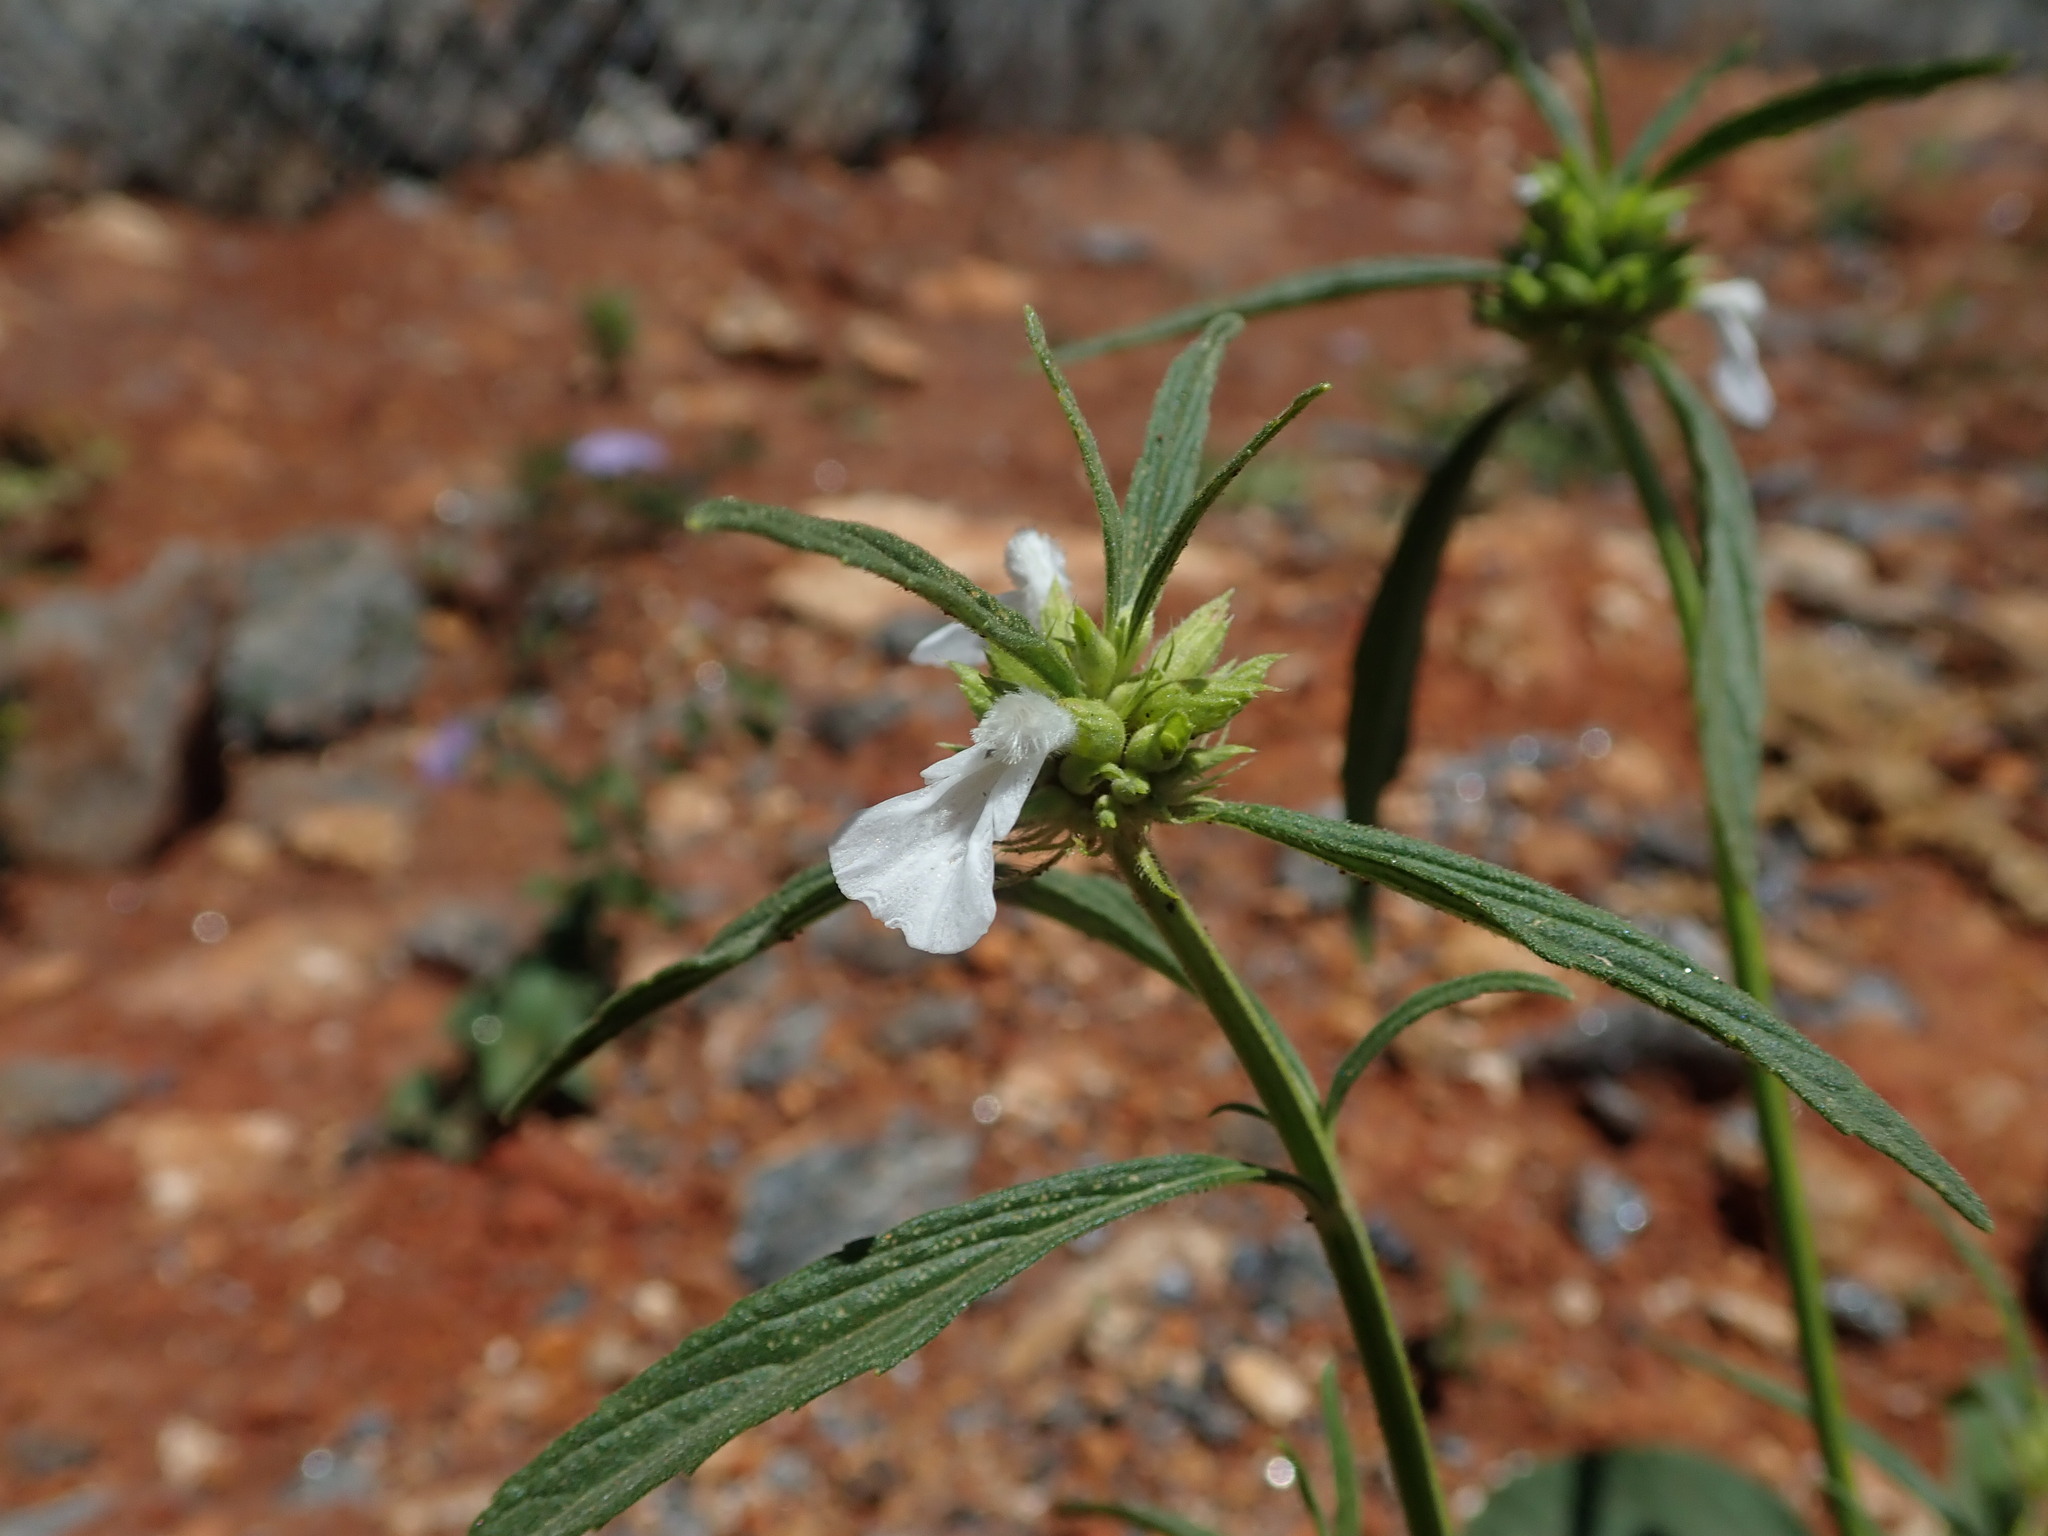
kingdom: Plantae
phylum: Tracheophyta
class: Magnoliopsida
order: Lamiales
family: Lamiaceae
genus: Leucas
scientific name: Leucas aspera
